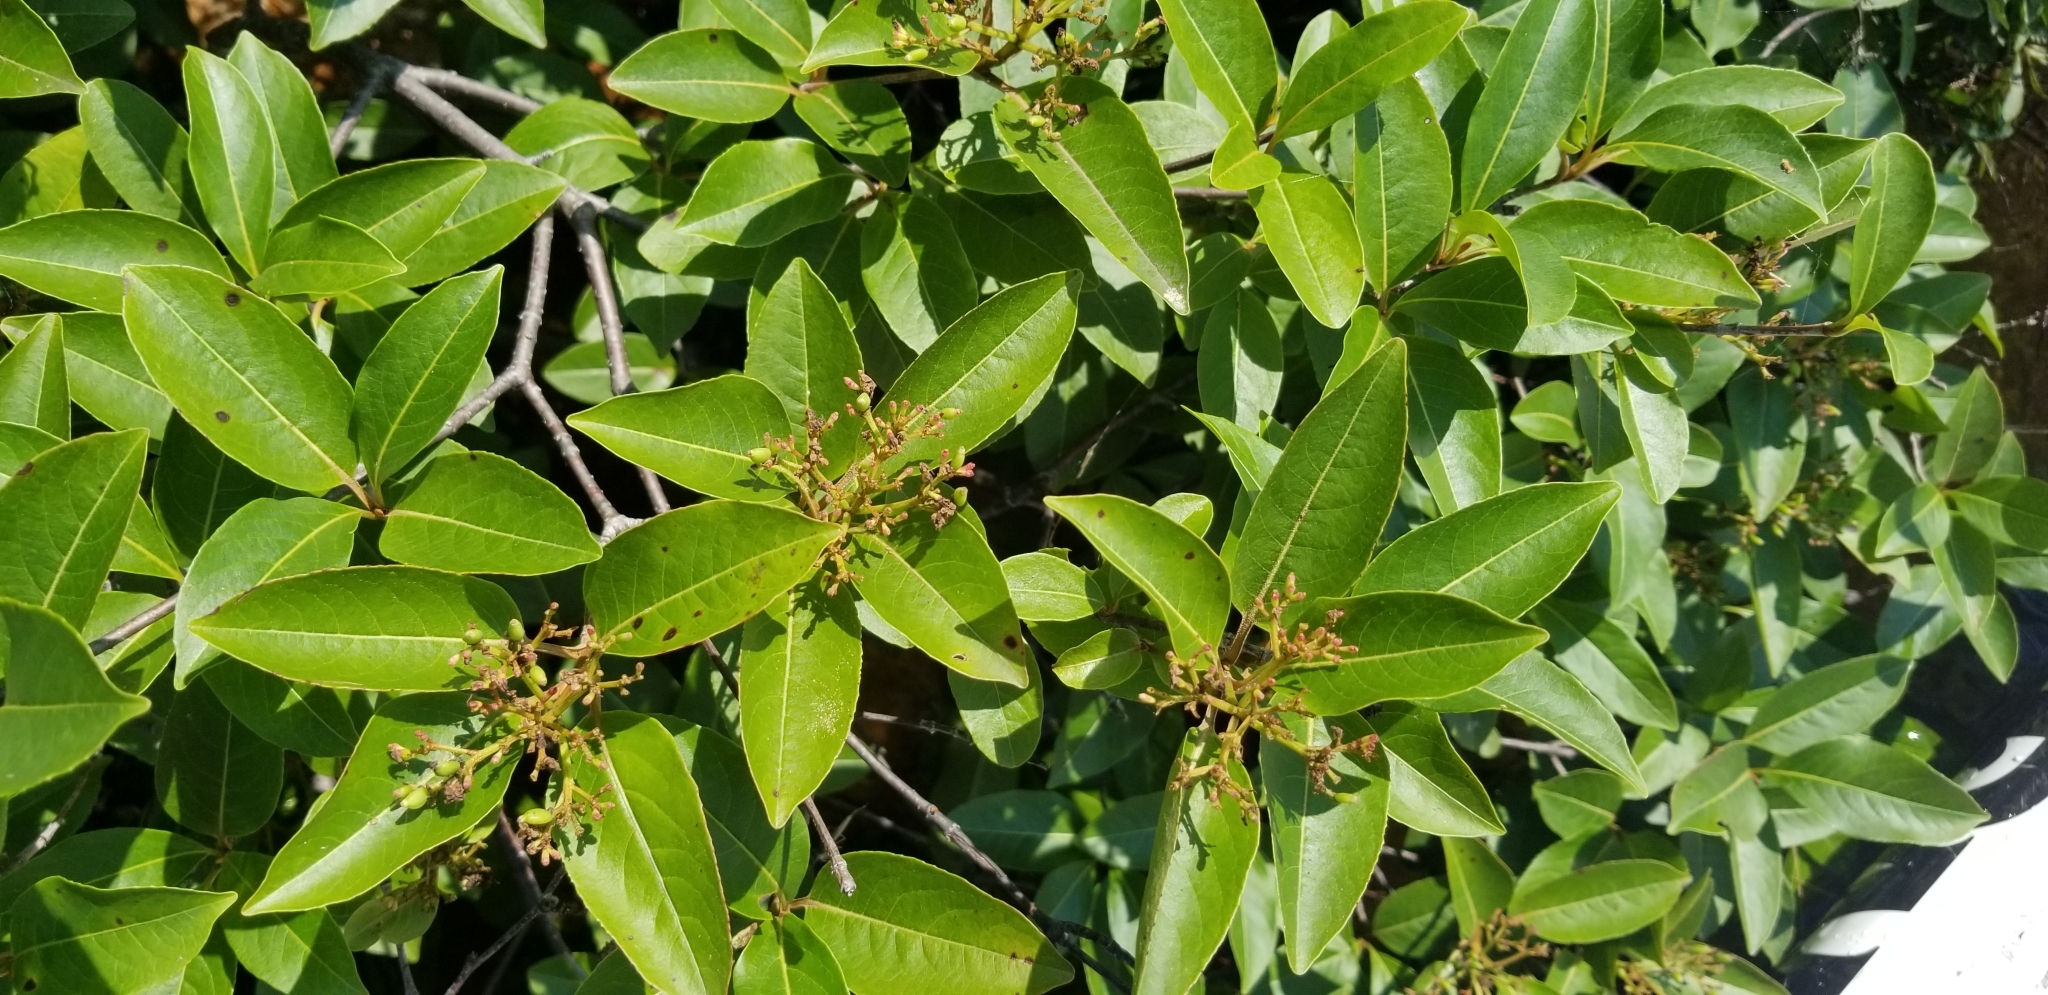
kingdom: Plantae
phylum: Tracheophyta
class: Magnoliopsida
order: Dipsacales
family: Viburnaceae
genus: Viburnum
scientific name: Viburnum cassinoides
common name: Swamp haw
